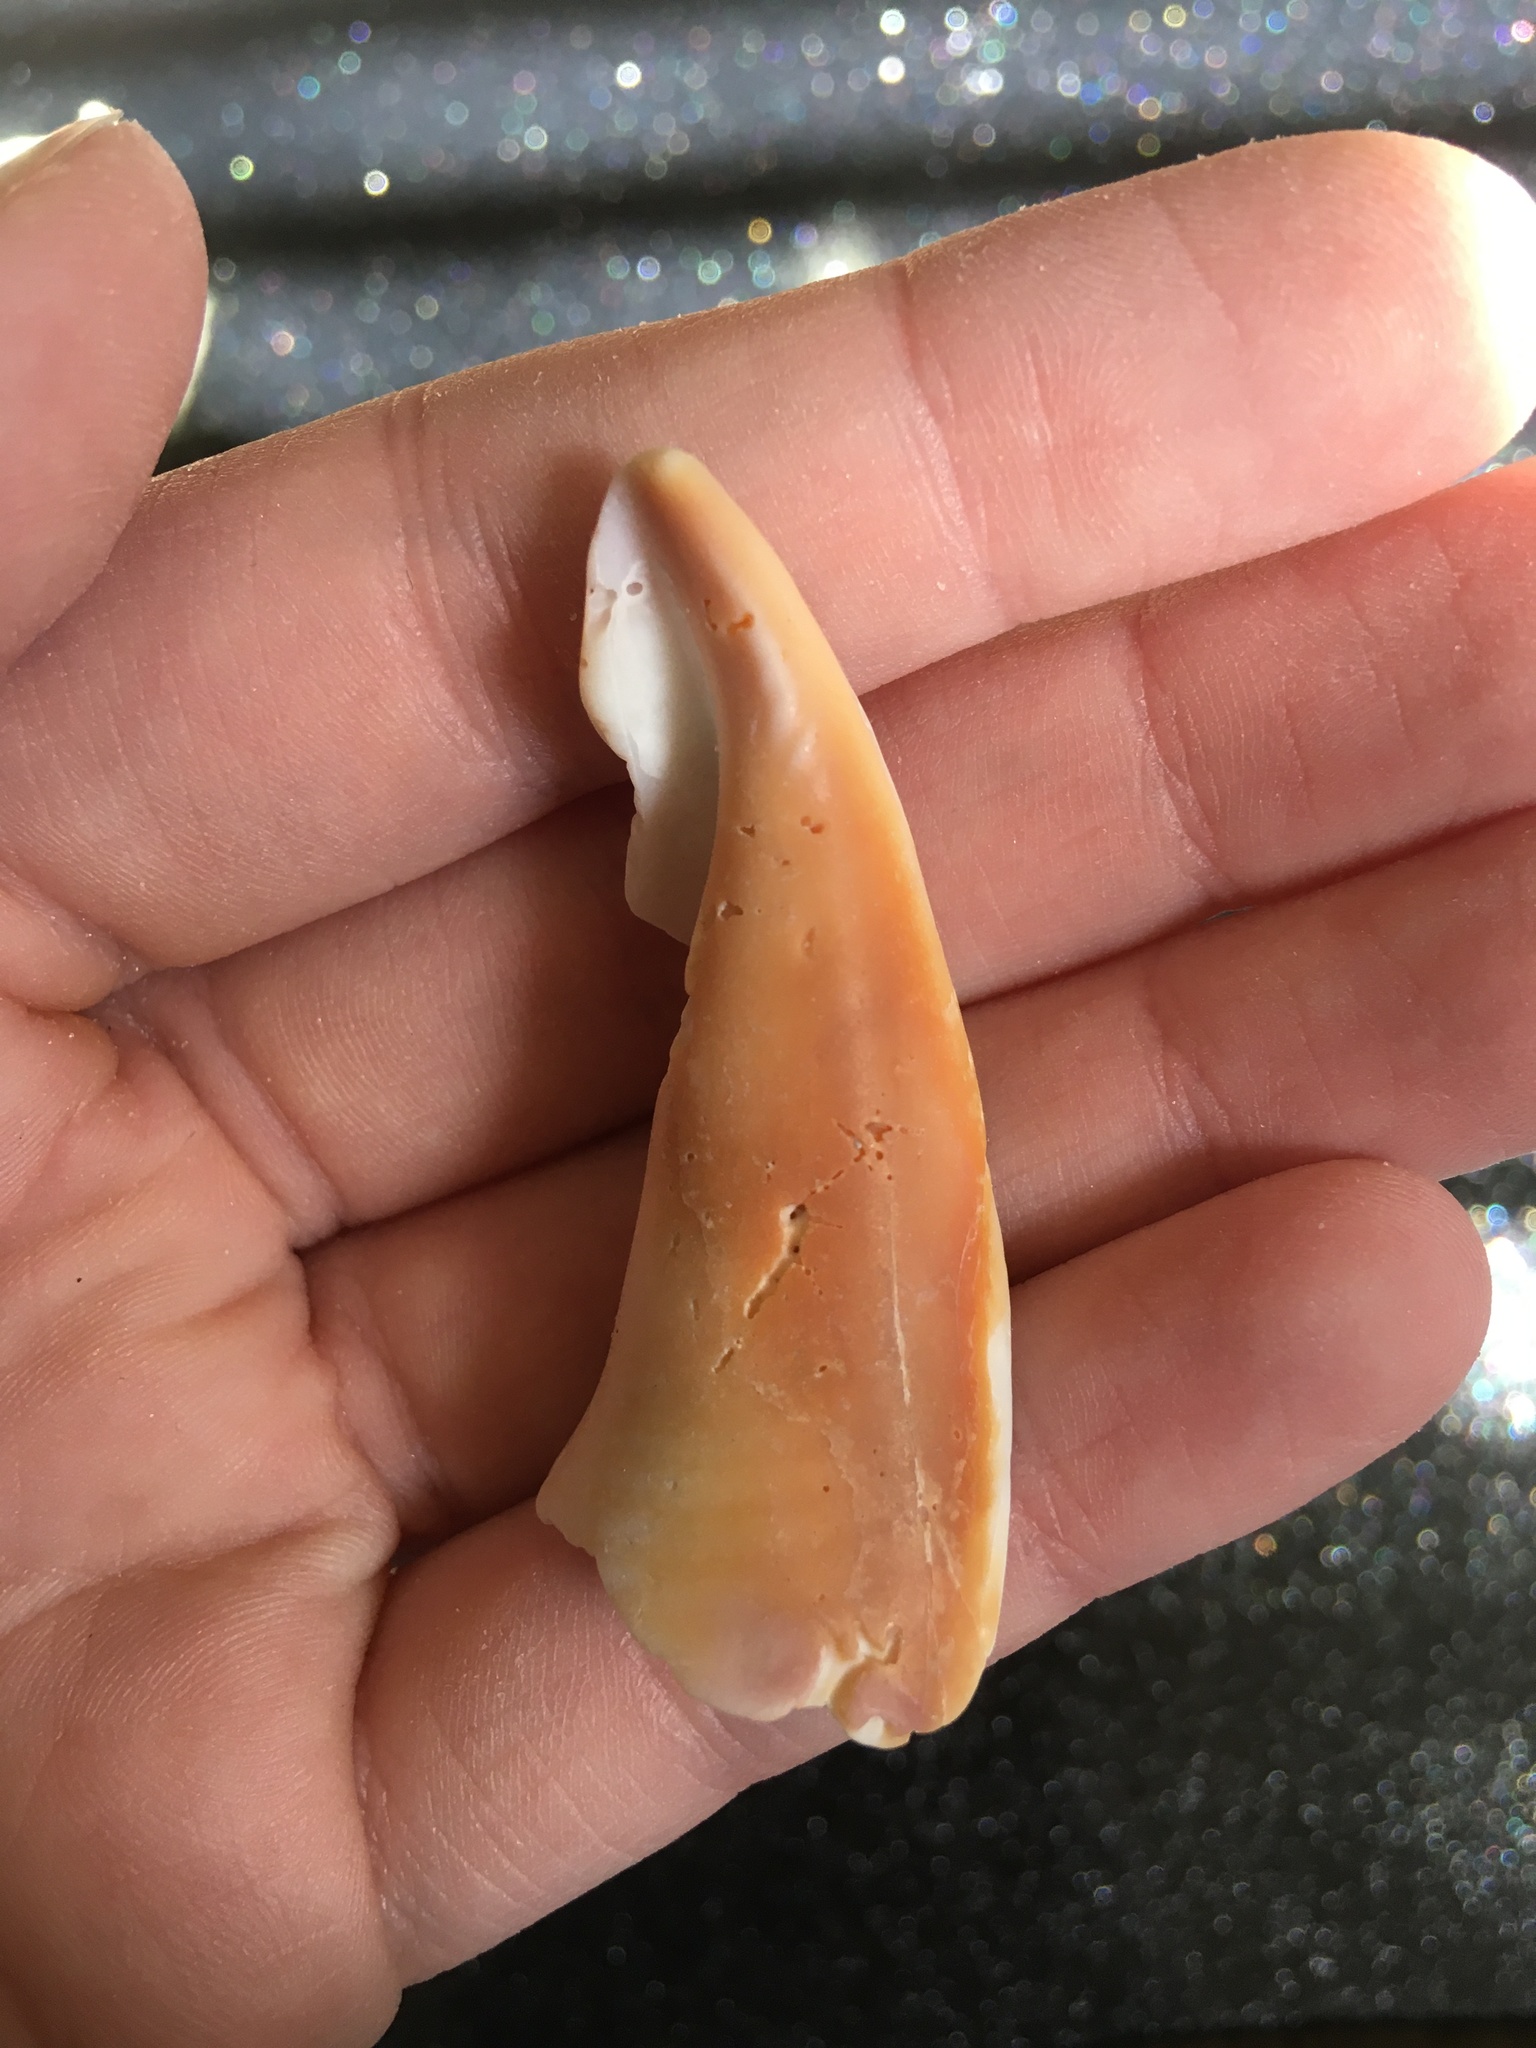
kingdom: Animalia
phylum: Mollusca
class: Gastropoda
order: Littorinimorpha
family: Strombidae
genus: Strombus
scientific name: Strombus alatus
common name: Florida fighting conch
